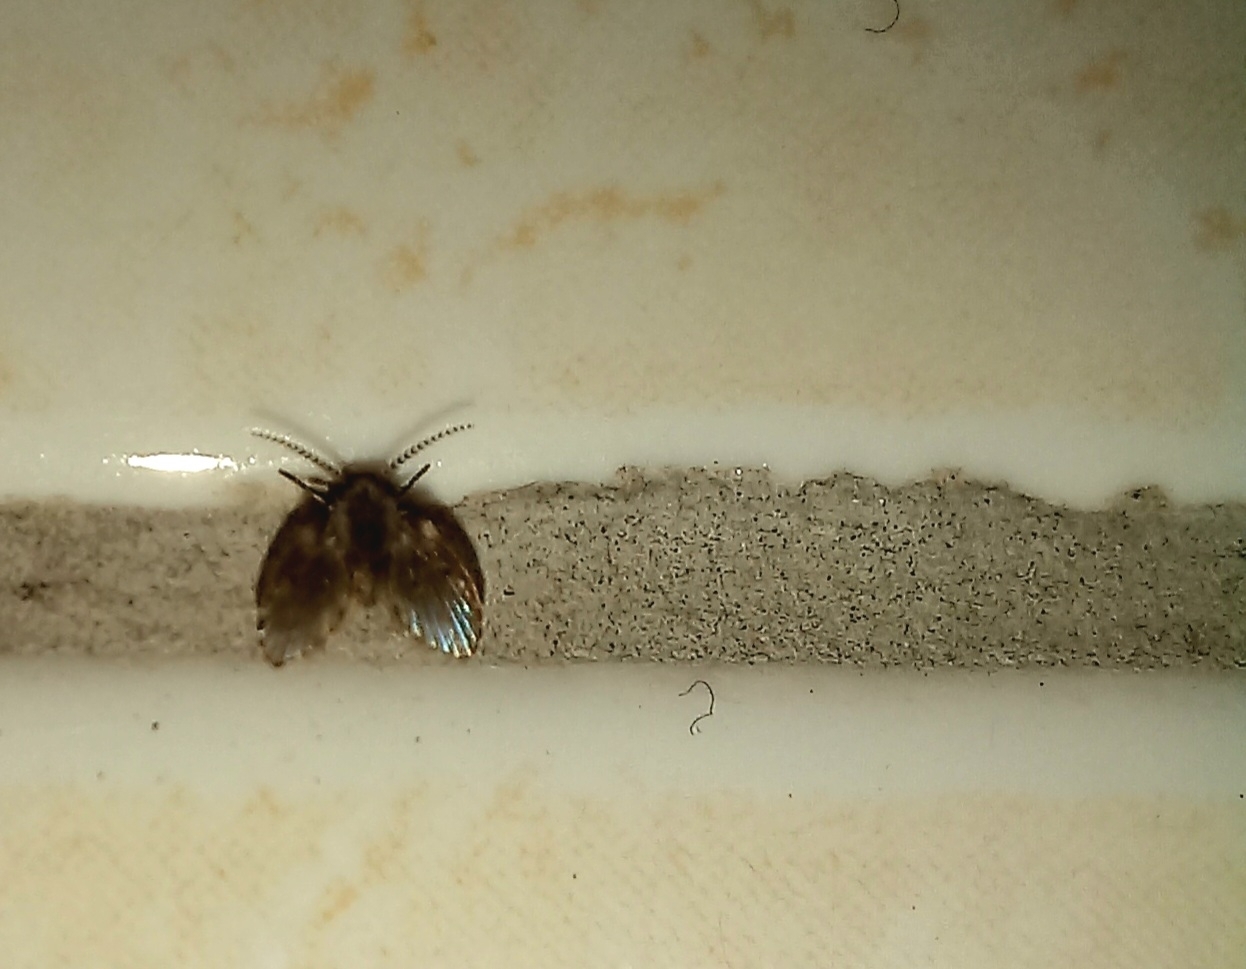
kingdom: Animalia
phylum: Arthropoda
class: Insecta
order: Diptera
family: Psychodidae
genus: Clogmia
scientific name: Clogmia albipunctatus
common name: White-spotted moth fly
